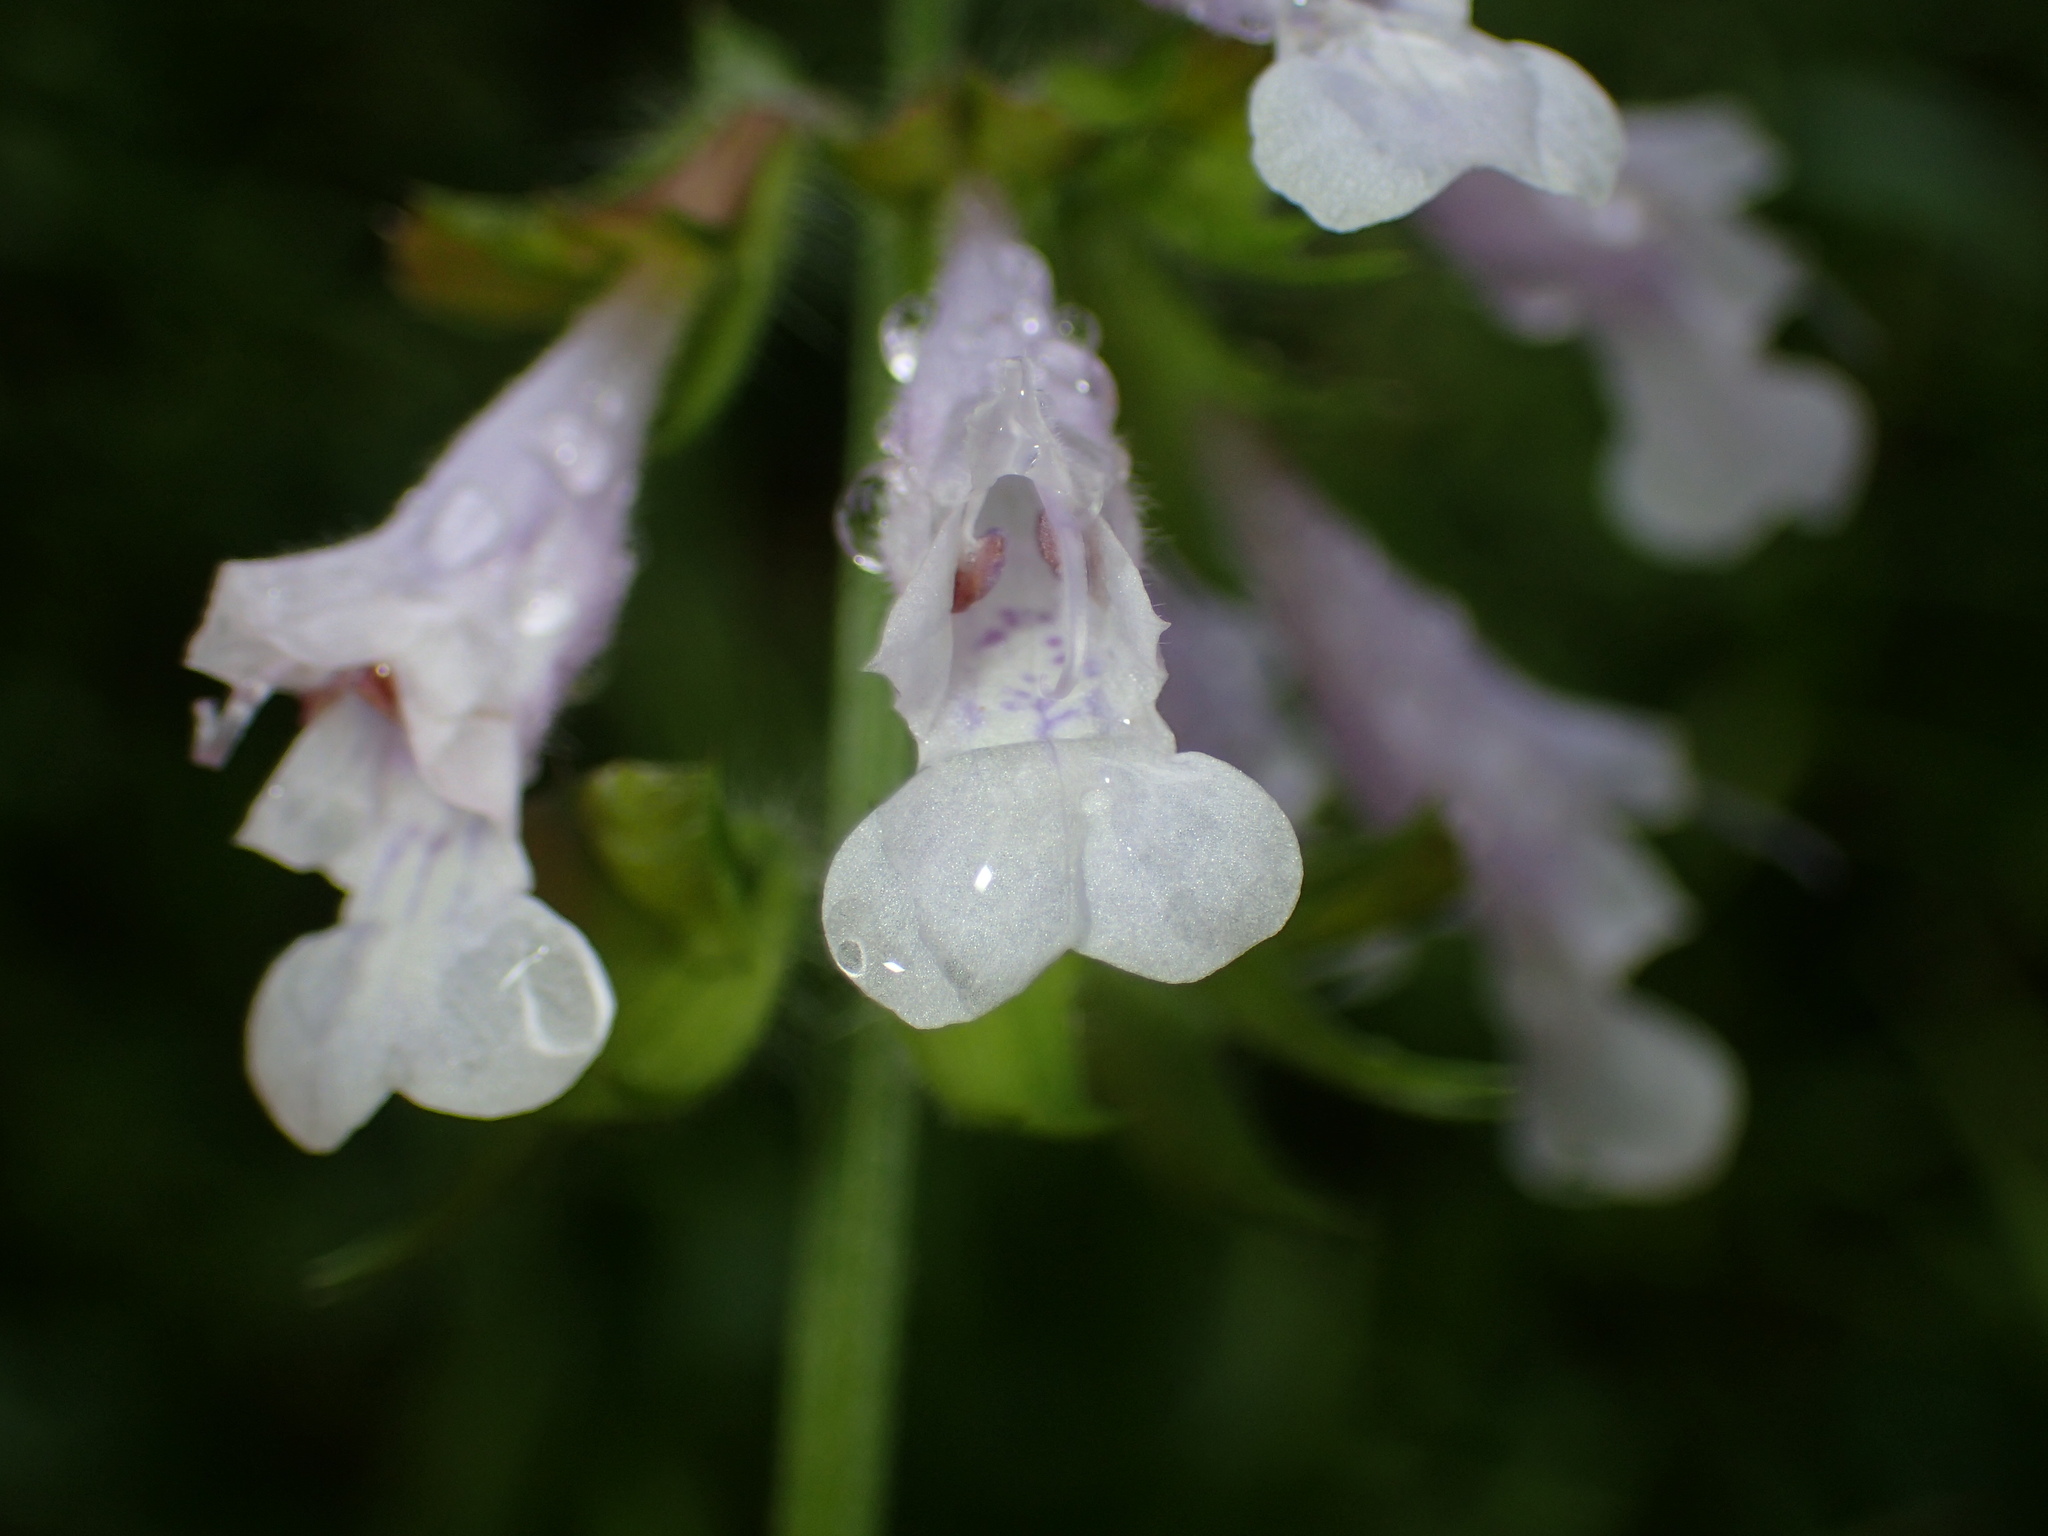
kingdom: Plantae
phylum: Tracheophyta
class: Magnoliopsida
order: Lamiales
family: Lamiaceae
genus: Salvia
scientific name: Salvia lyrata
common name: Cancerweed
